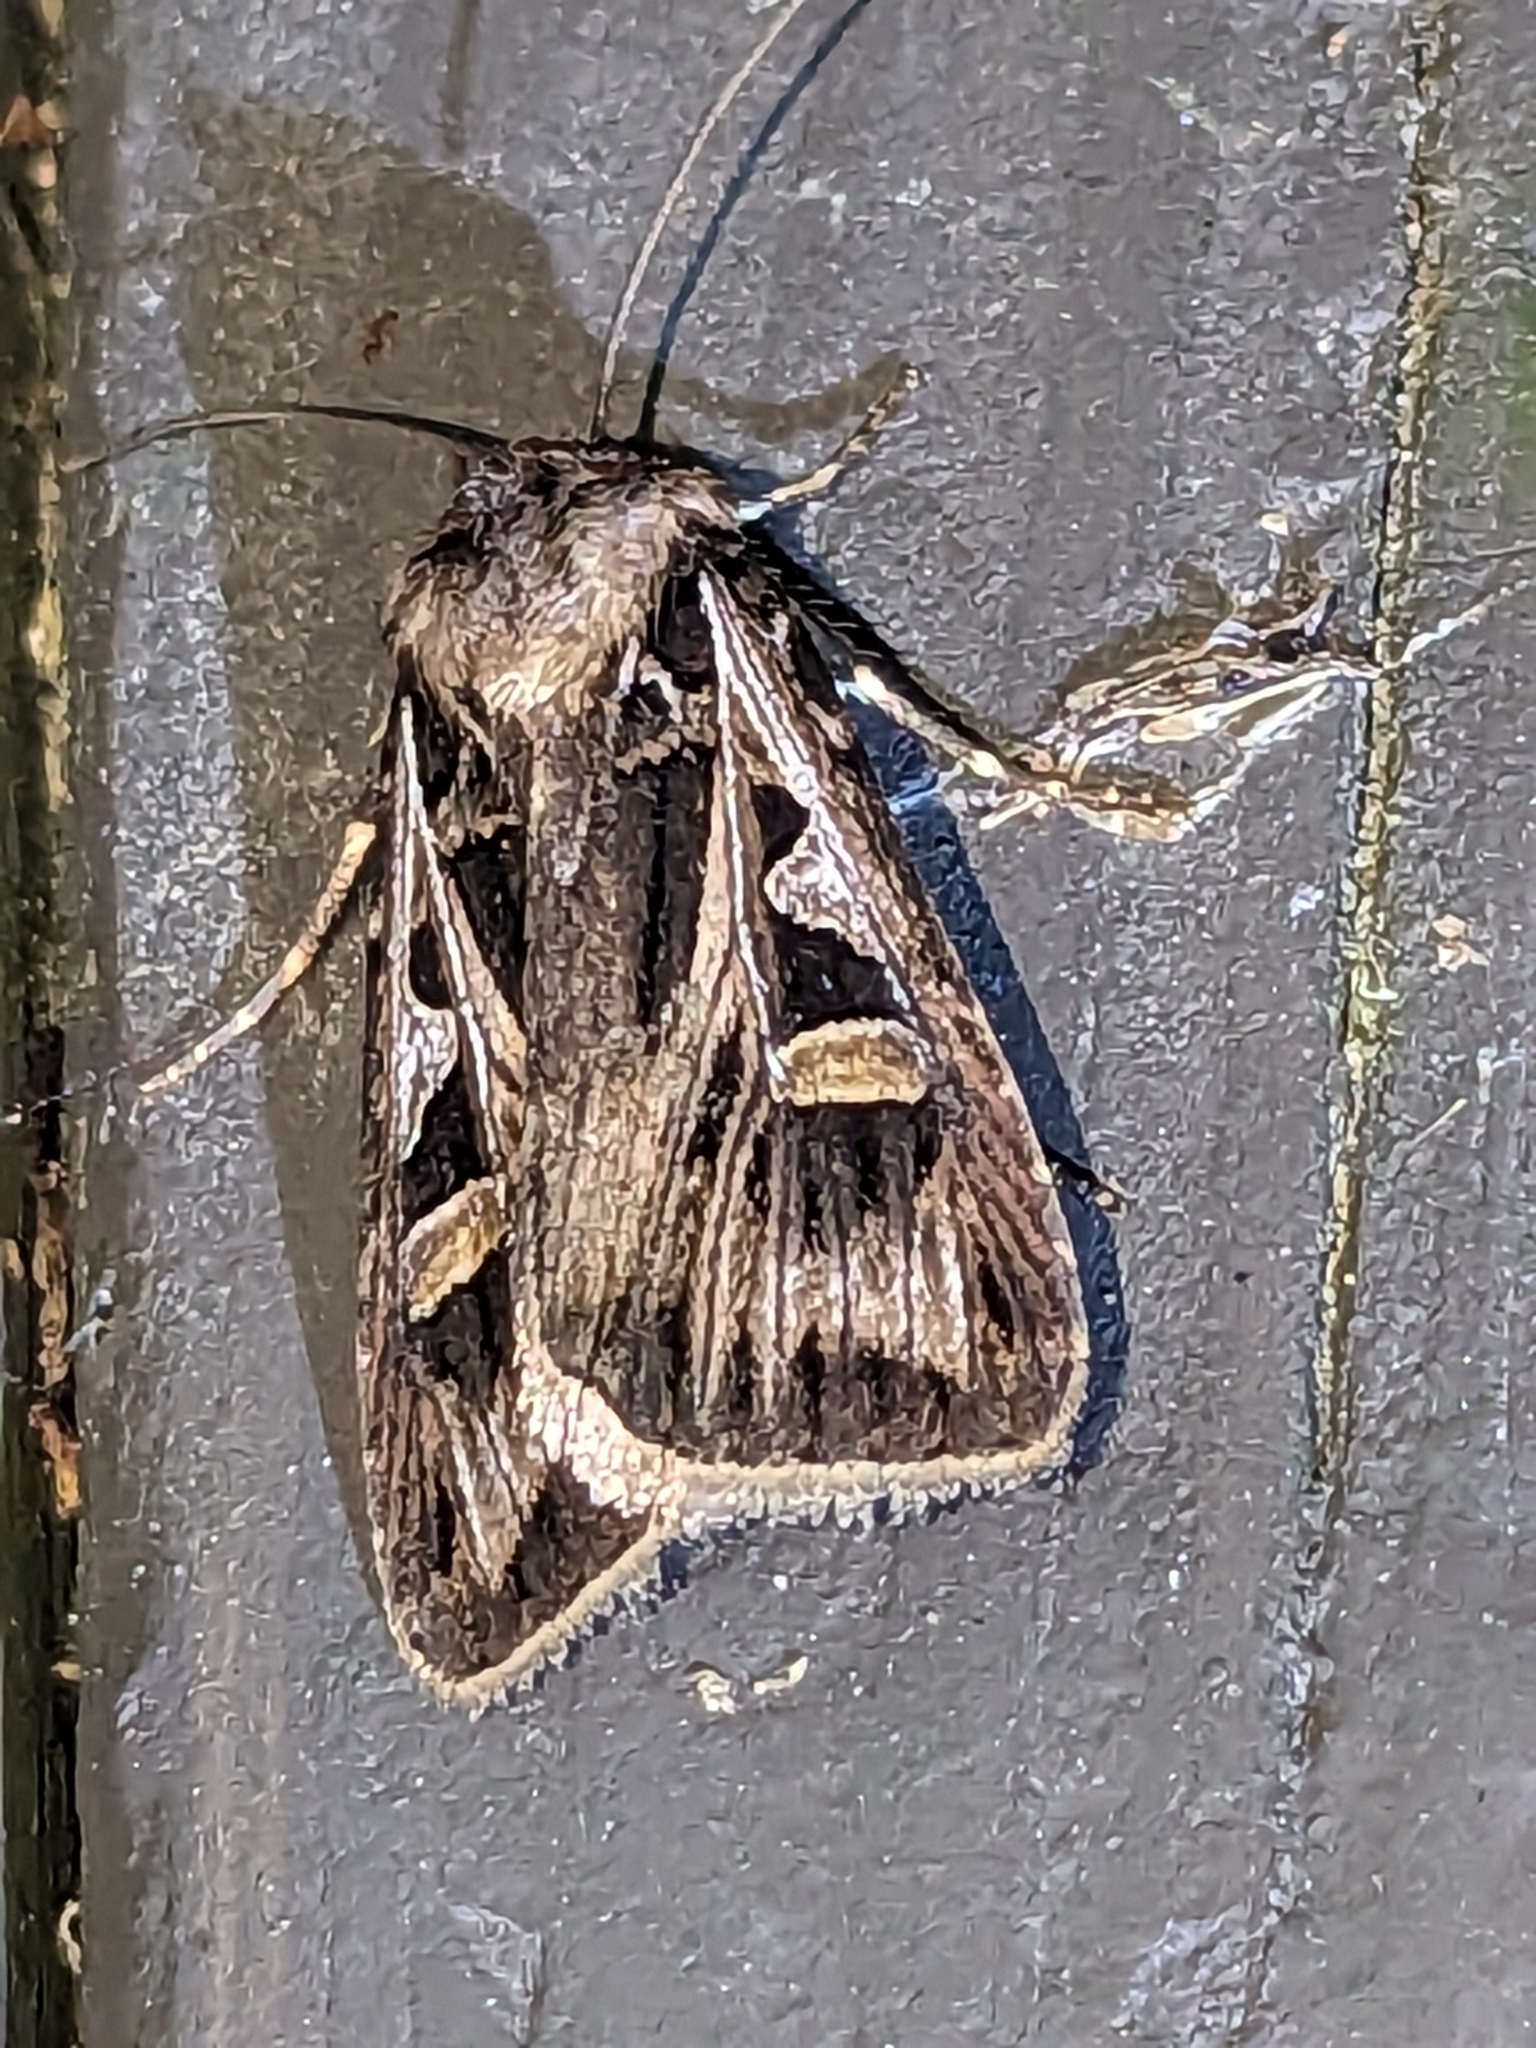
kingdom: Animalia
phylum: Arthropoda
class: Insecta
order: Lepidoptera
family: Noctuidae
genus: Feltia
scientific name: Feltia jaculifera
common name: Dingy cutworm moth
